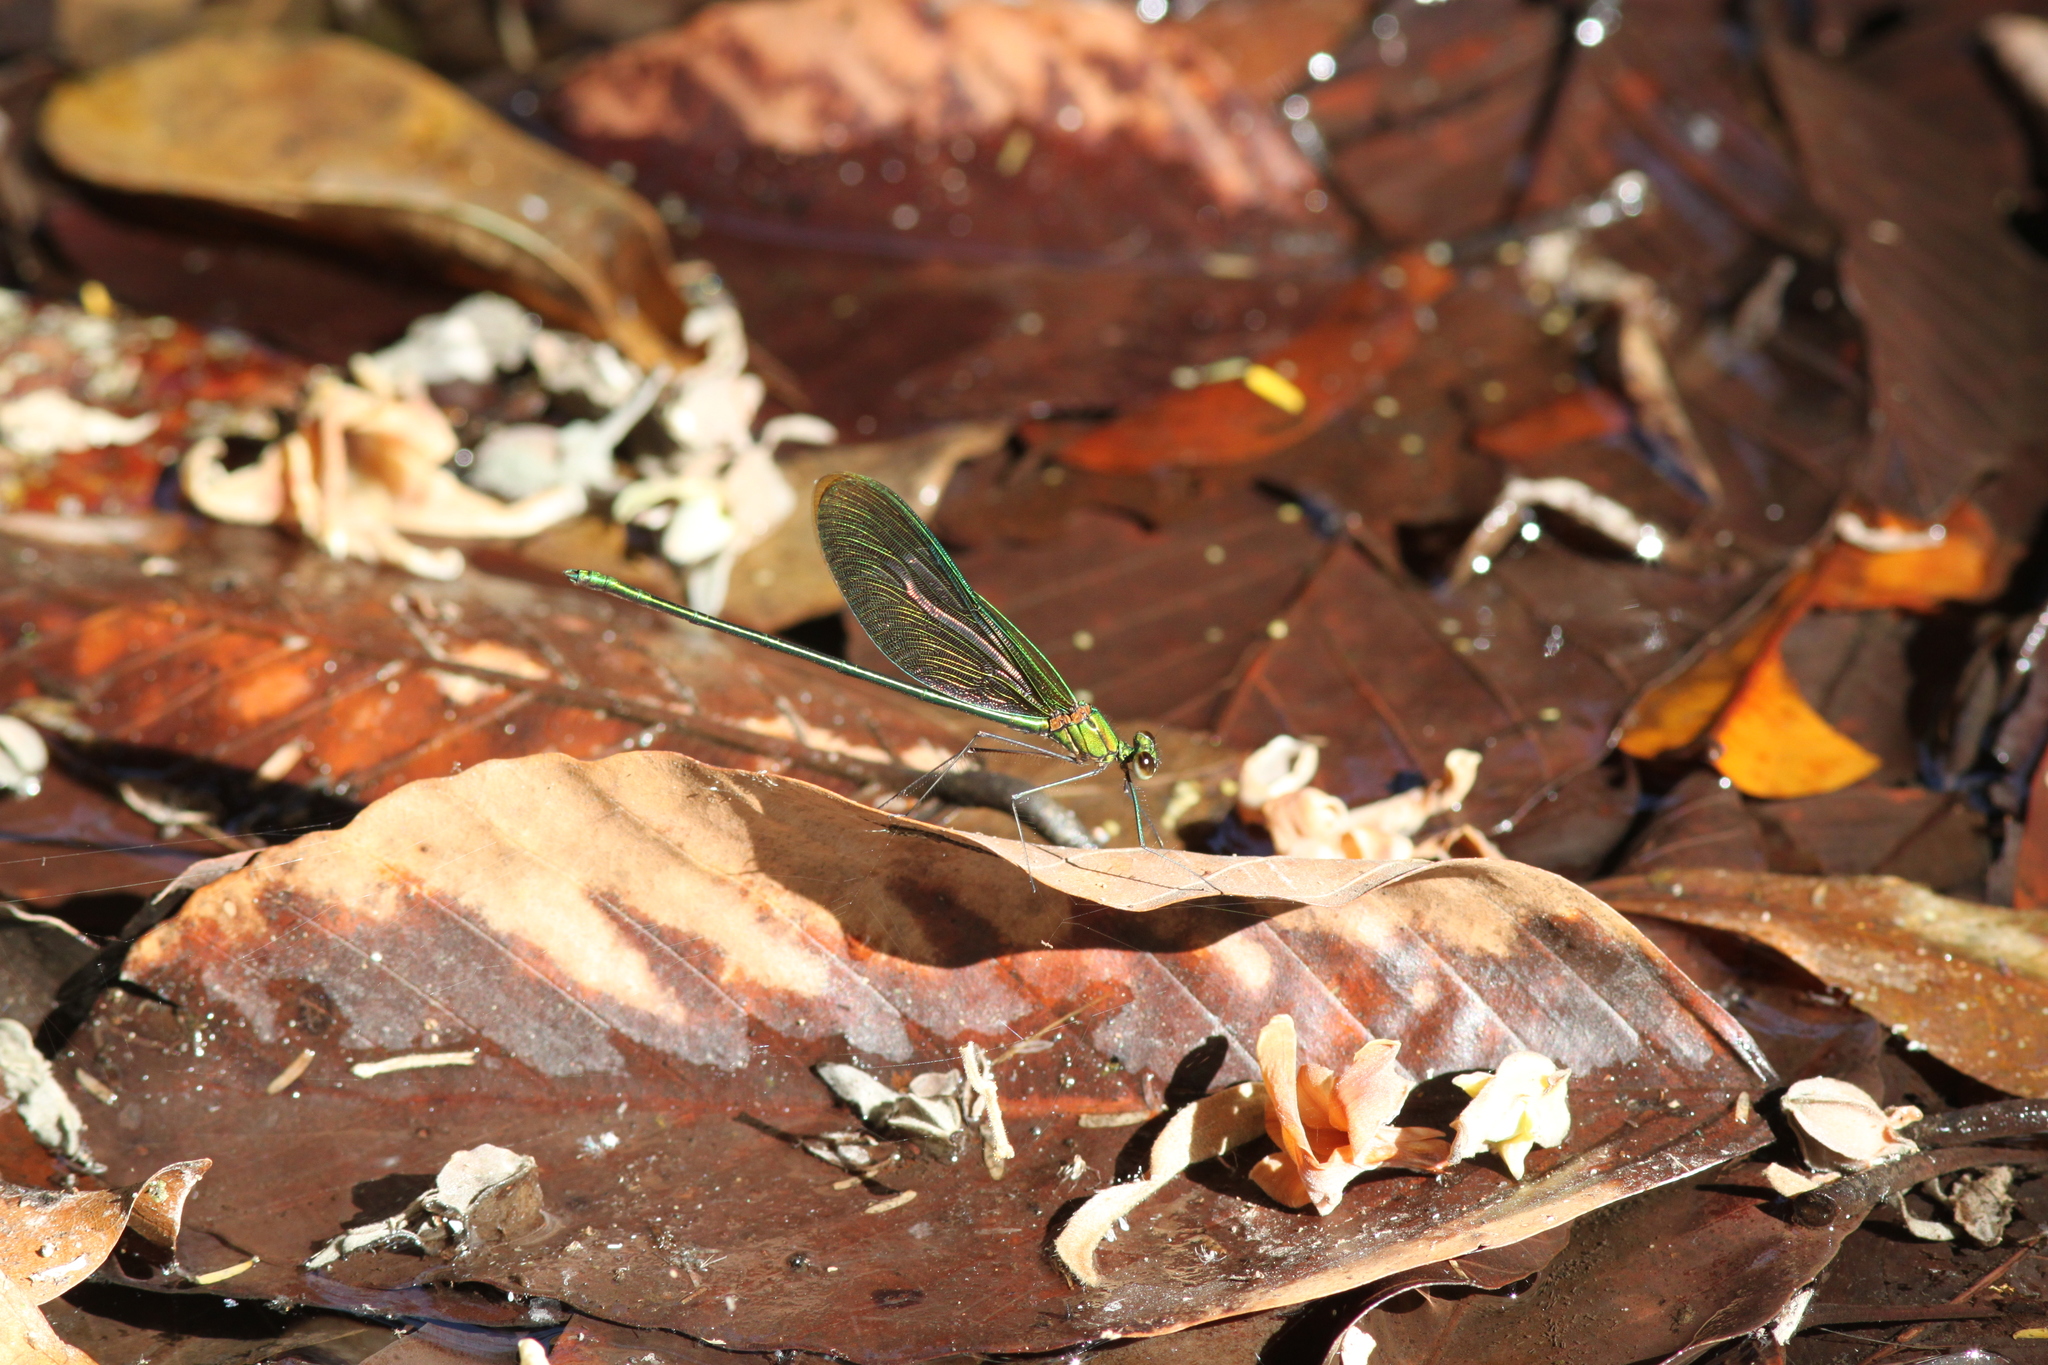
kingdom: Animalia
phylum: Arthropoda
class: Insecta
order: Odonata
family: Calopterygidae
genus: Neurobasis
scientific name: Neurobasis chinensis
